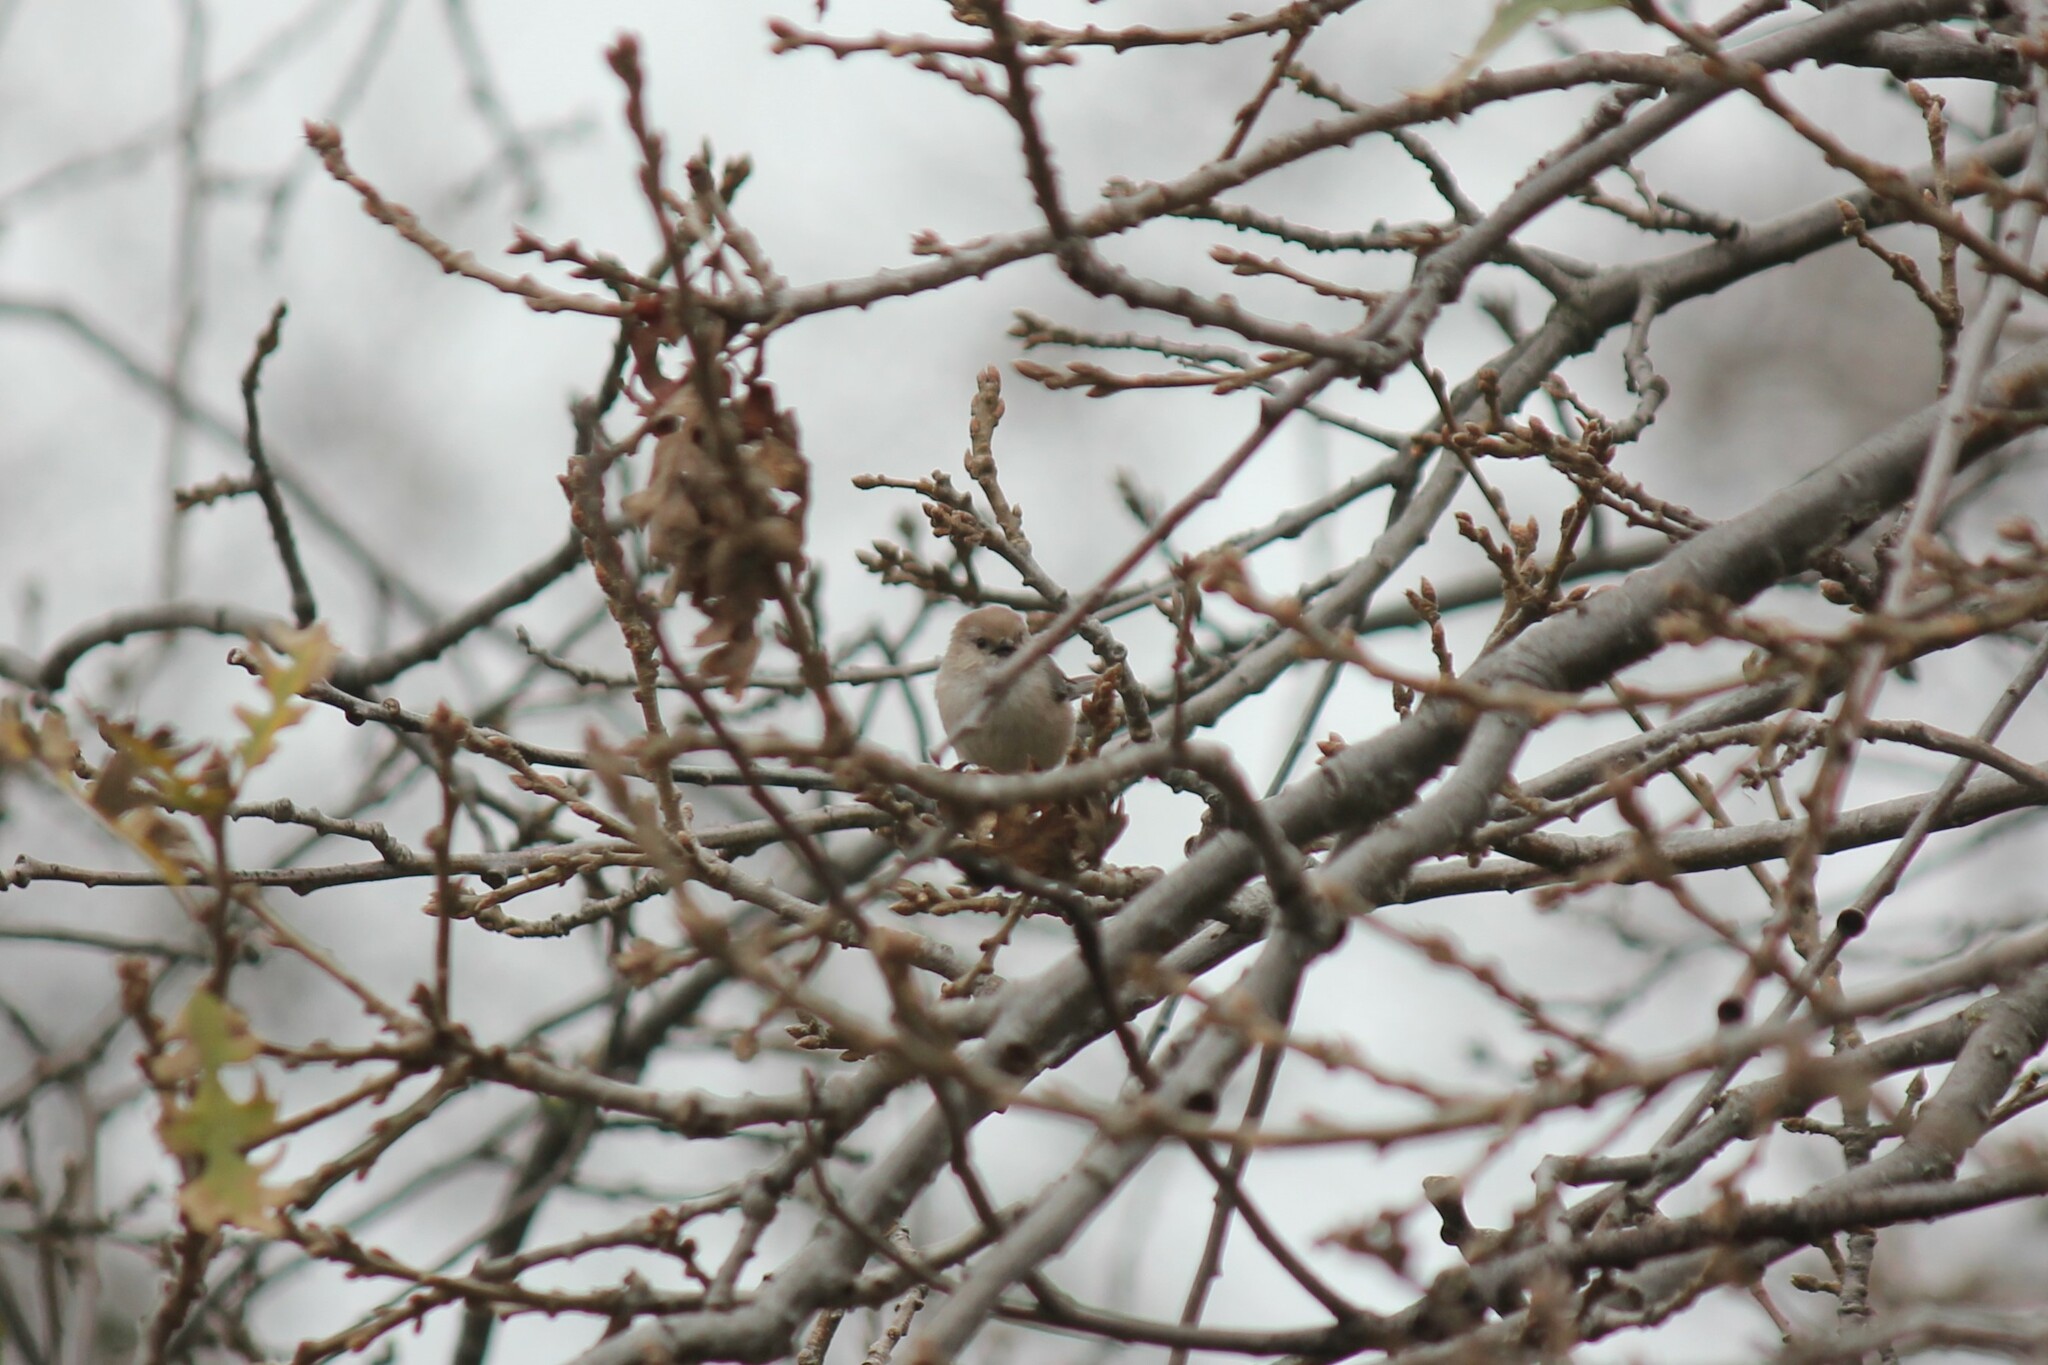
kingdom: Animalia
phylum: Chordata
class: Aves
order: Passeriformes
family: Aegithalidae
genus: Psaltriparus
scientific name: Psaltriparus minimus
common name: American bushtit
